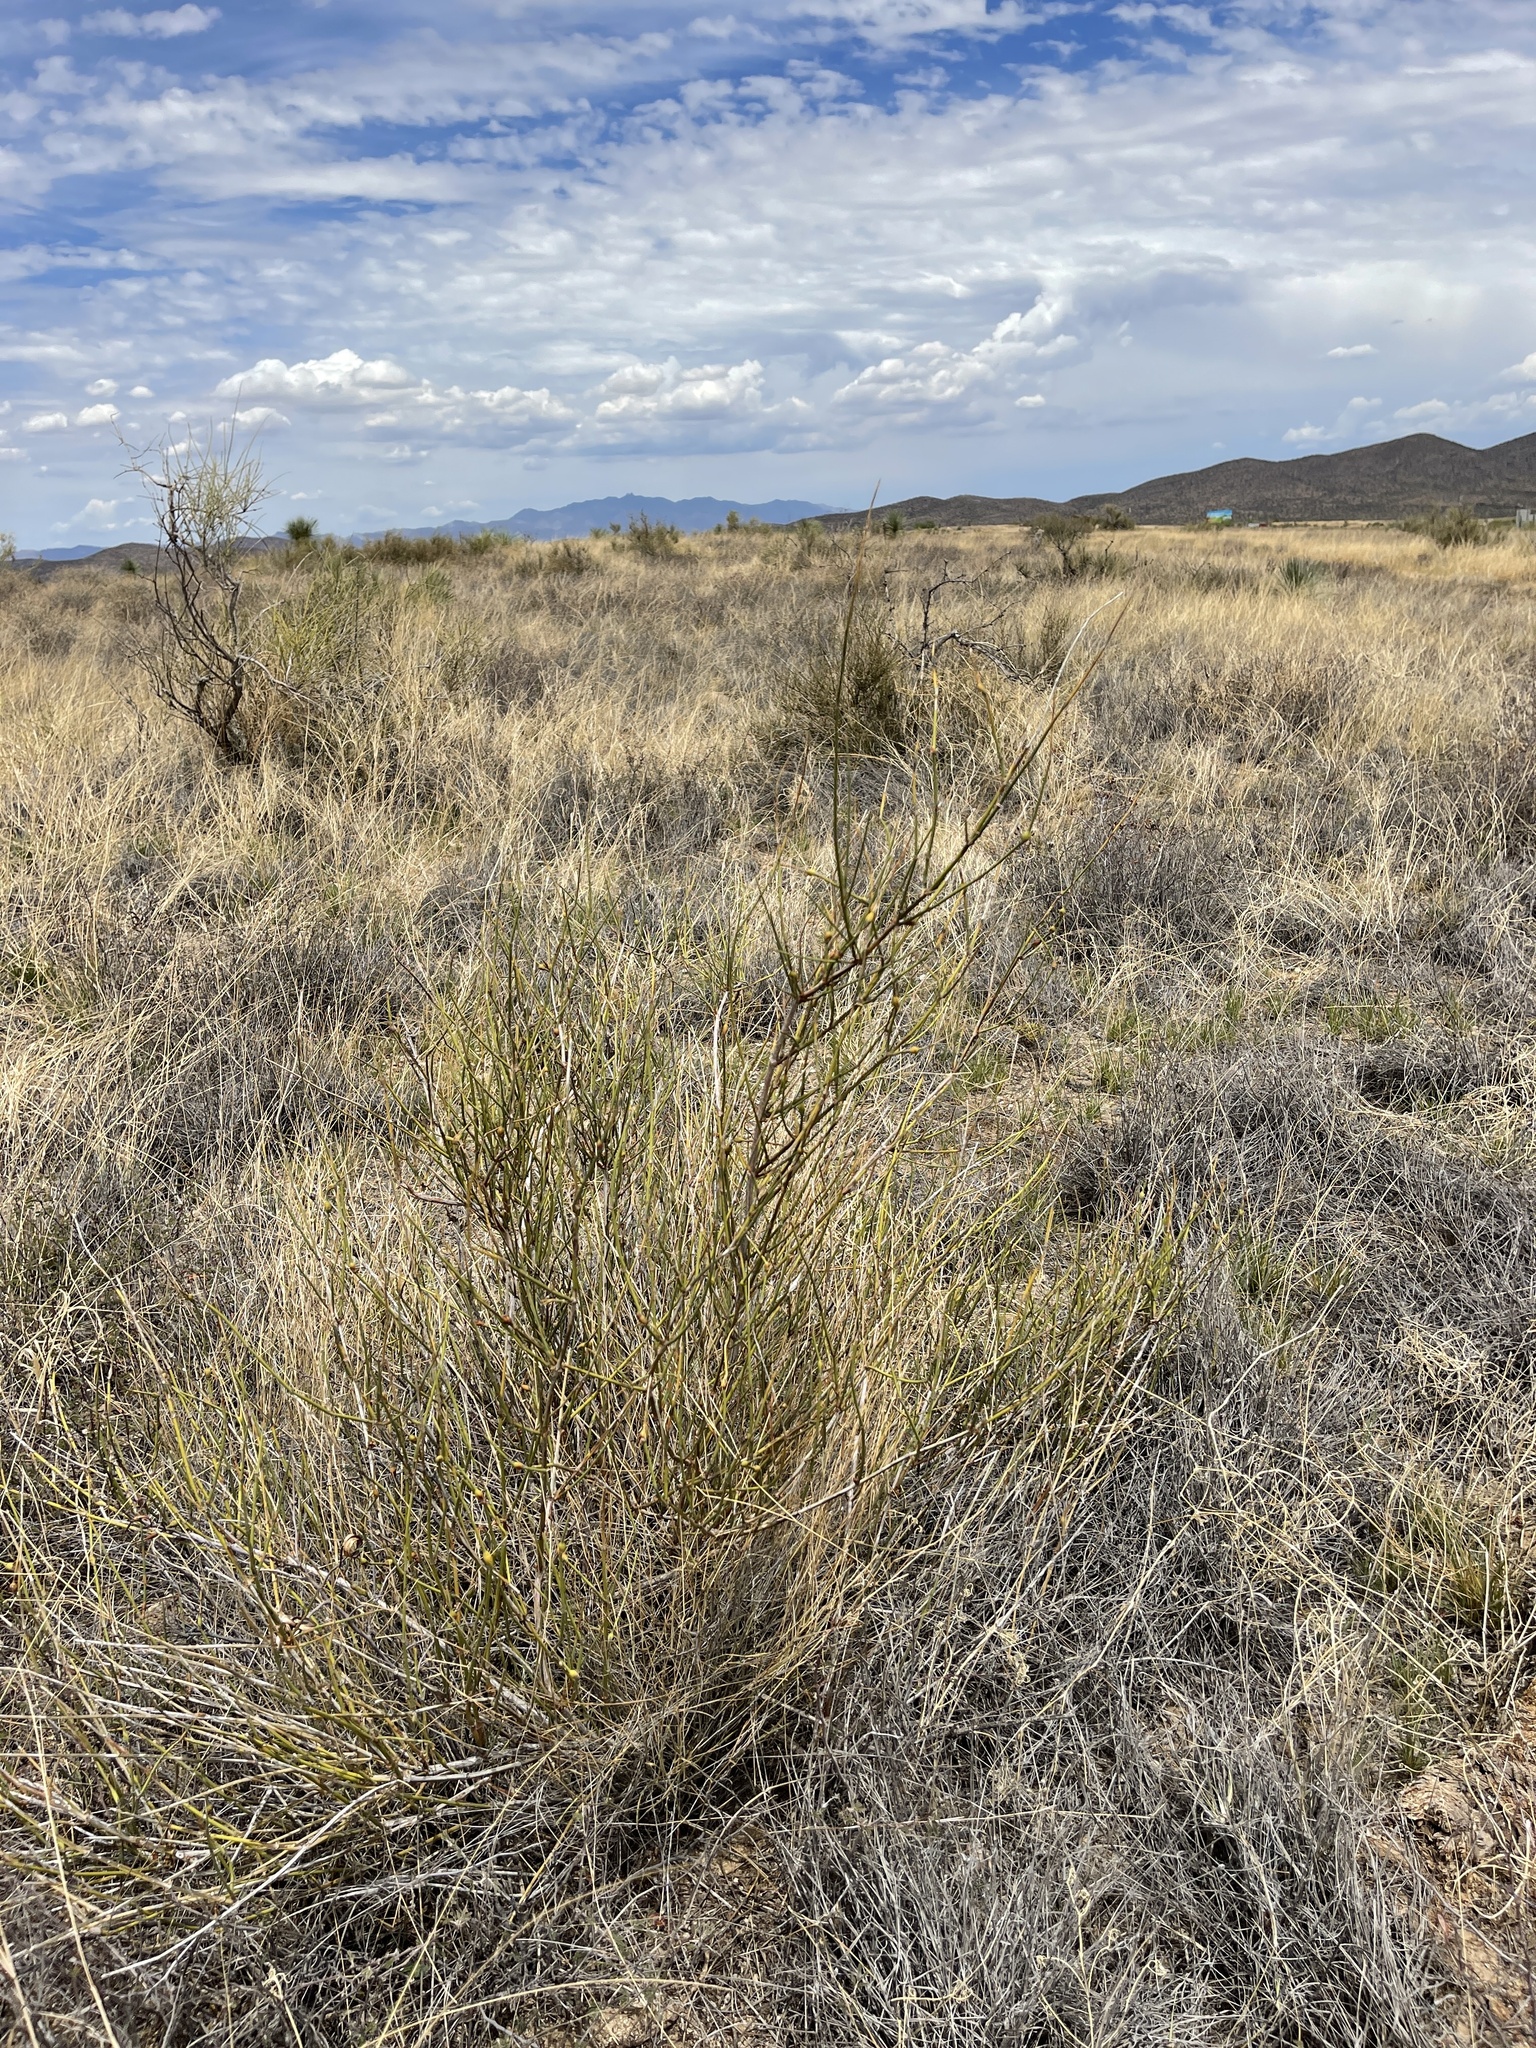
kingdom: Plantae
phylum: Tracheophyta
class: Gnetopsida
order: Ephedrales
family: Ephedraceae
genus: Ephedra
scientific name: Ephedra trifurca
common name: Mexican-tea
